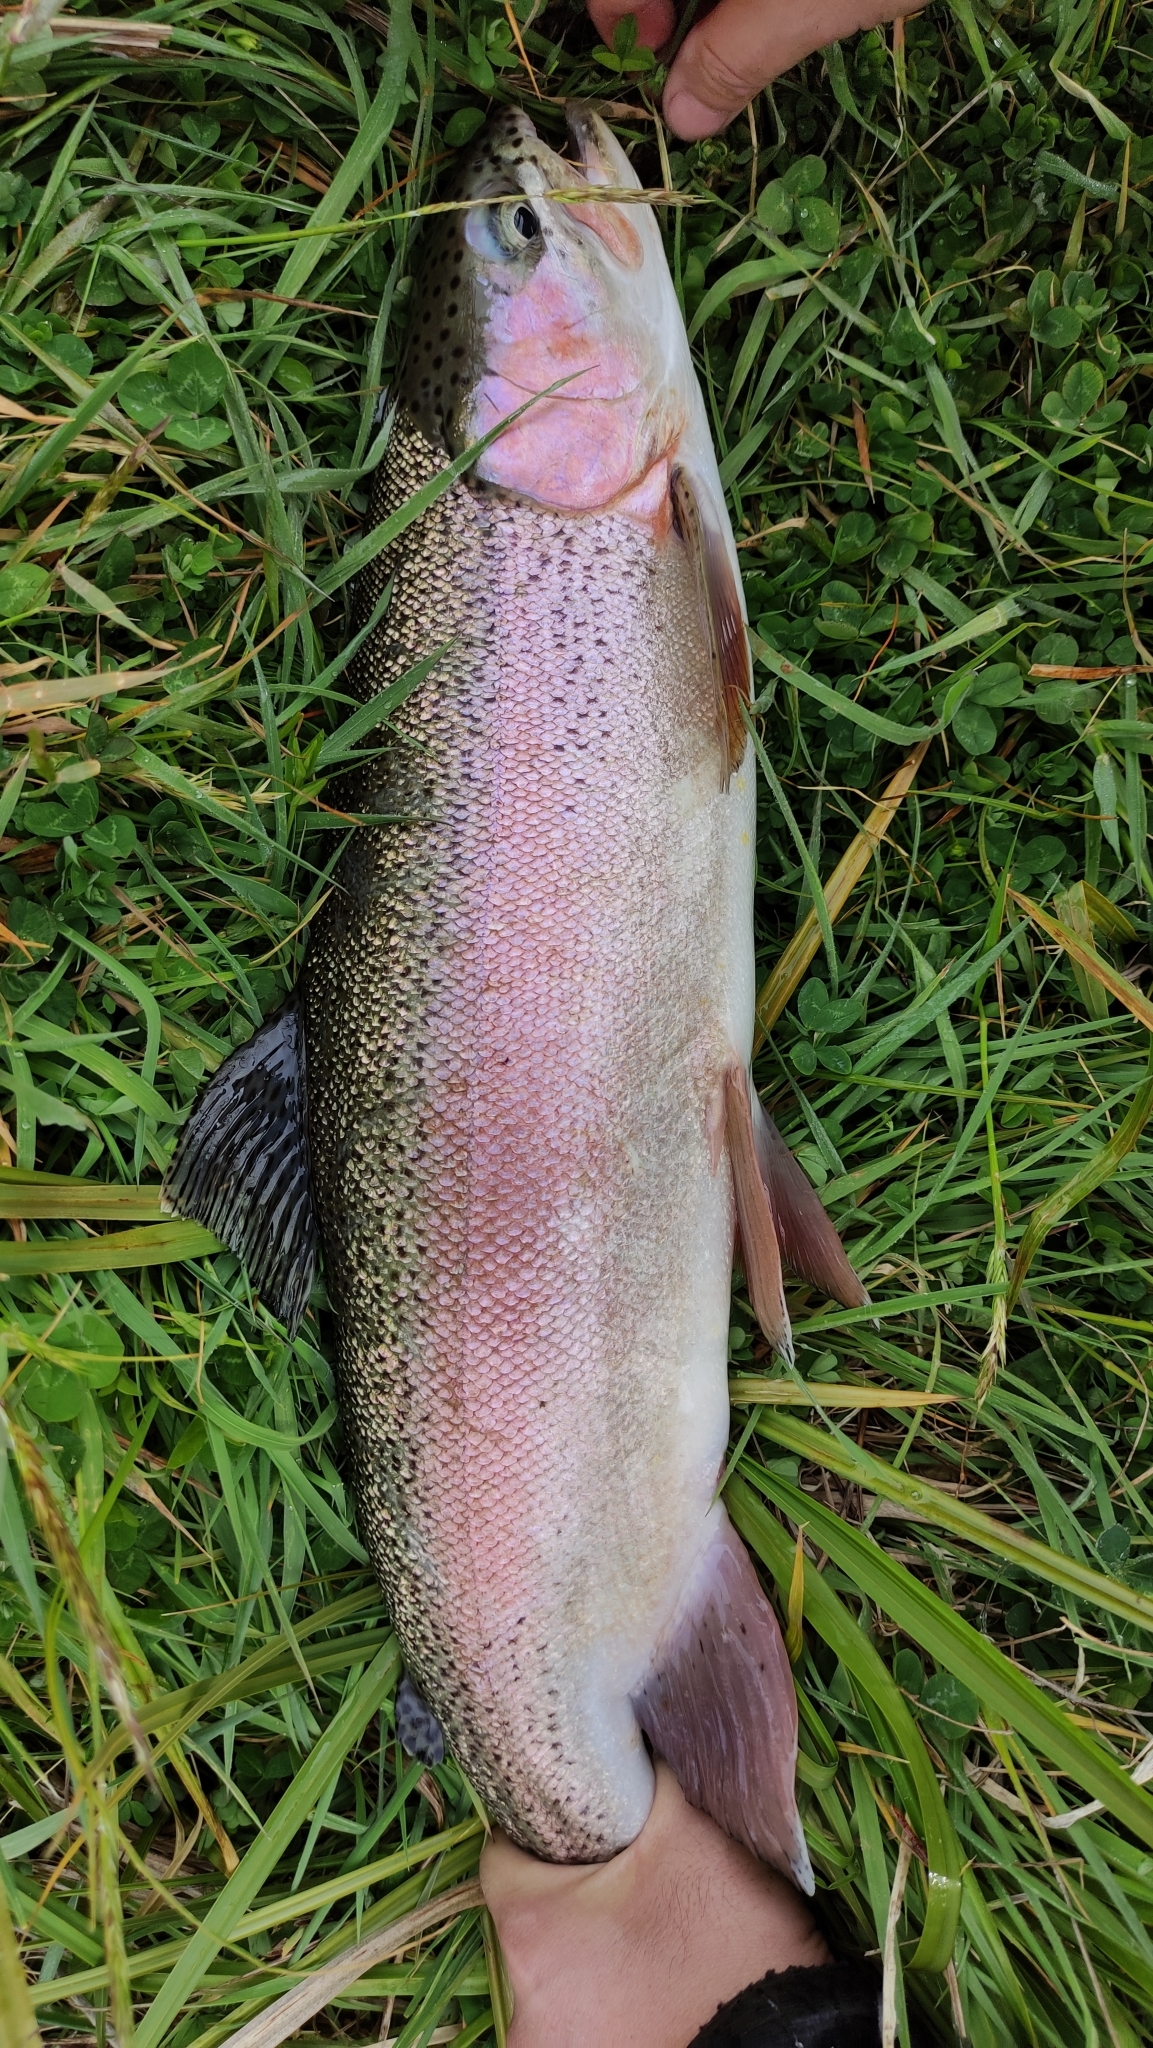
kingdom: Animalia
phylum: Chordata
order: Salmoniformes
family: Salmonidae
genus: Oncorhynchus
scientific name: Oncorhynchus mykiss
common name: Rainbow trout
